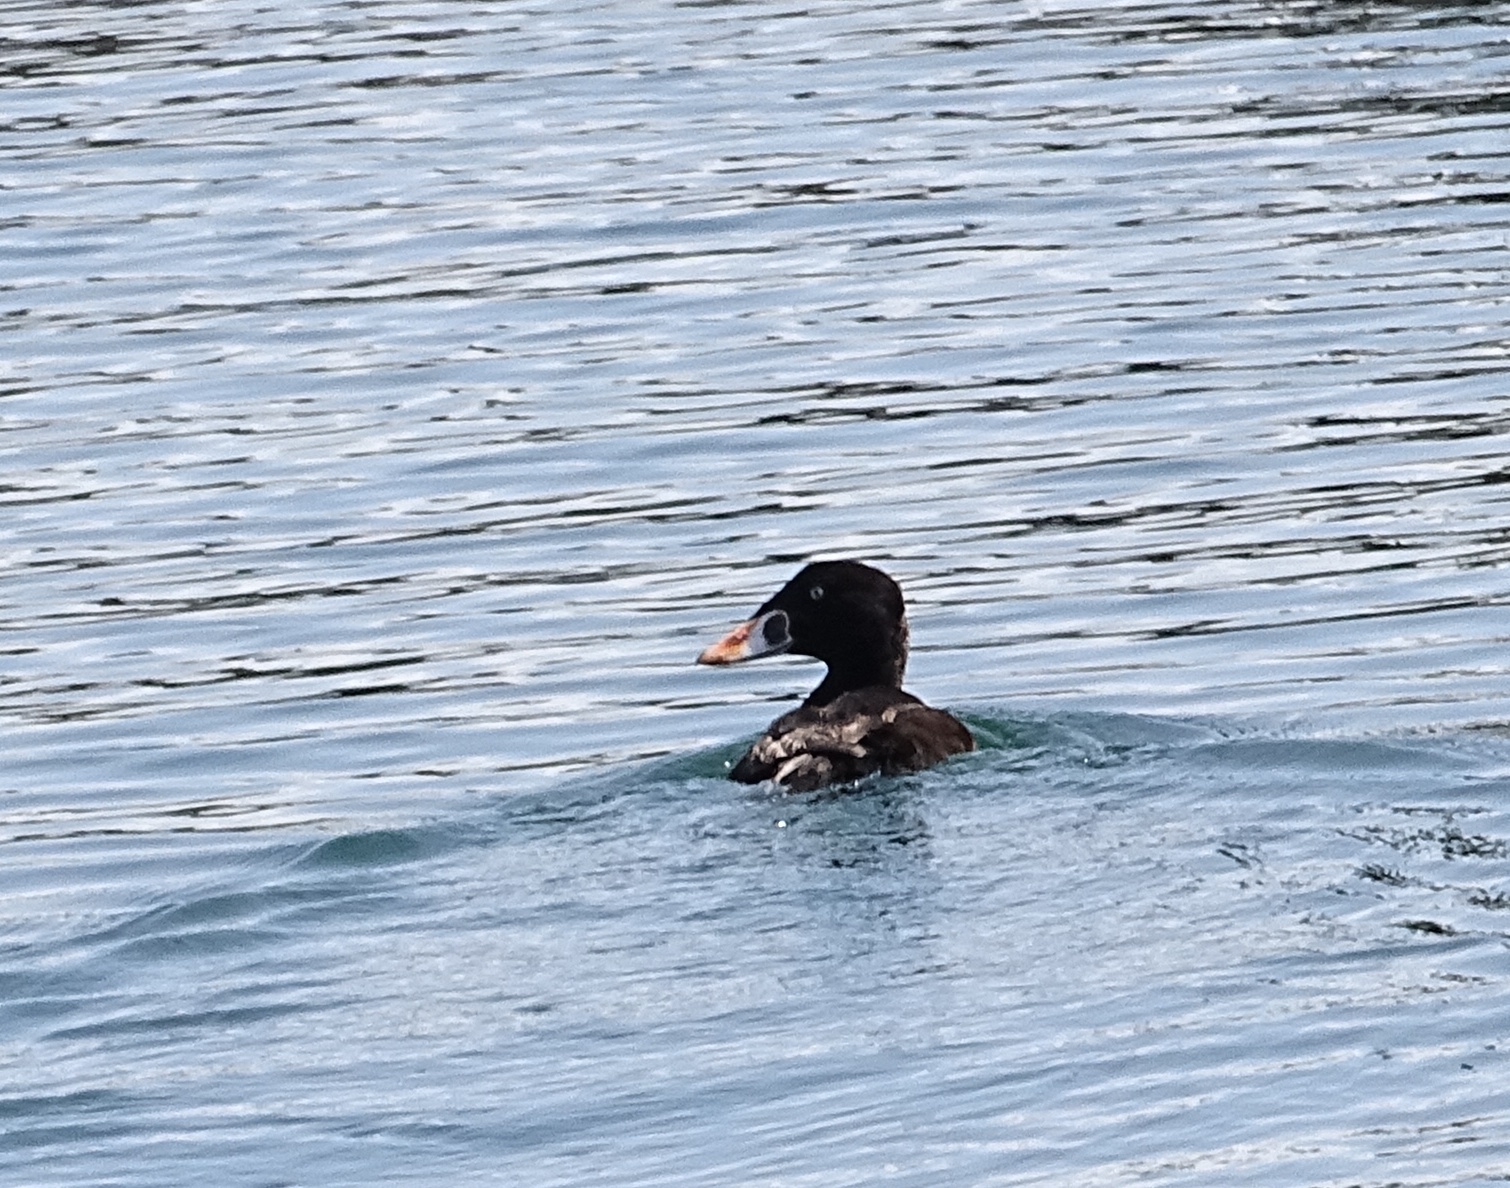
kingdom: Animalia
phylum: Chordata
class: Aves
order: Anseriformes
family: Anatidae
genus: Melanitta
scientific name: Melanitta perspicillata
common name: Surf scoter
